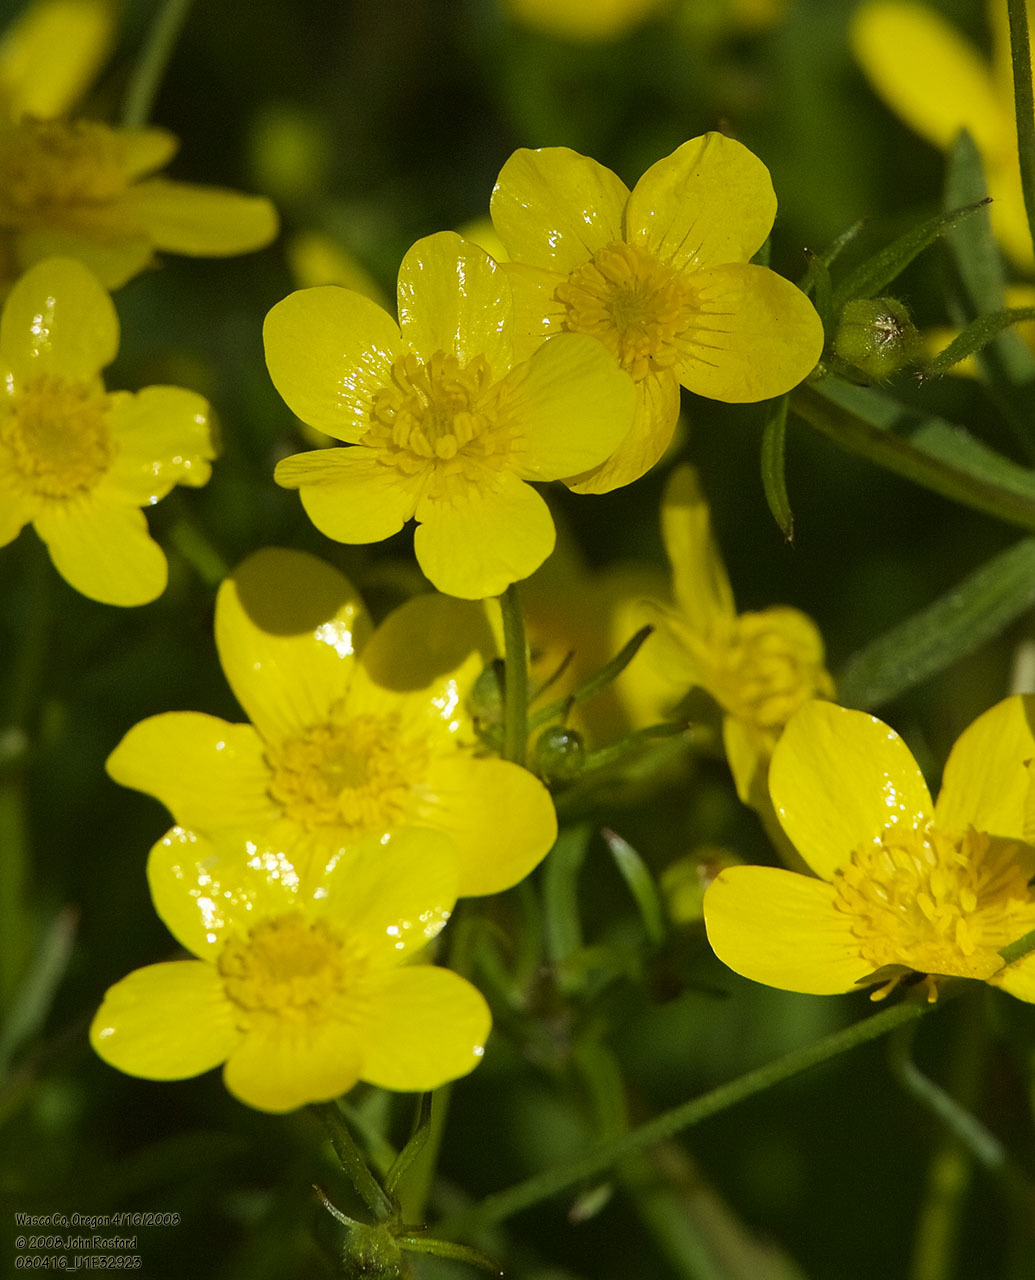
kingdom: Plantae
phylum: Tracheophyta
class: Magnoliopsida
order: Ranunculales
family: Ranunculaceae
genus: Ranunculus
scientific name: Ranunculus occidentalis
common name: Western buttercup
